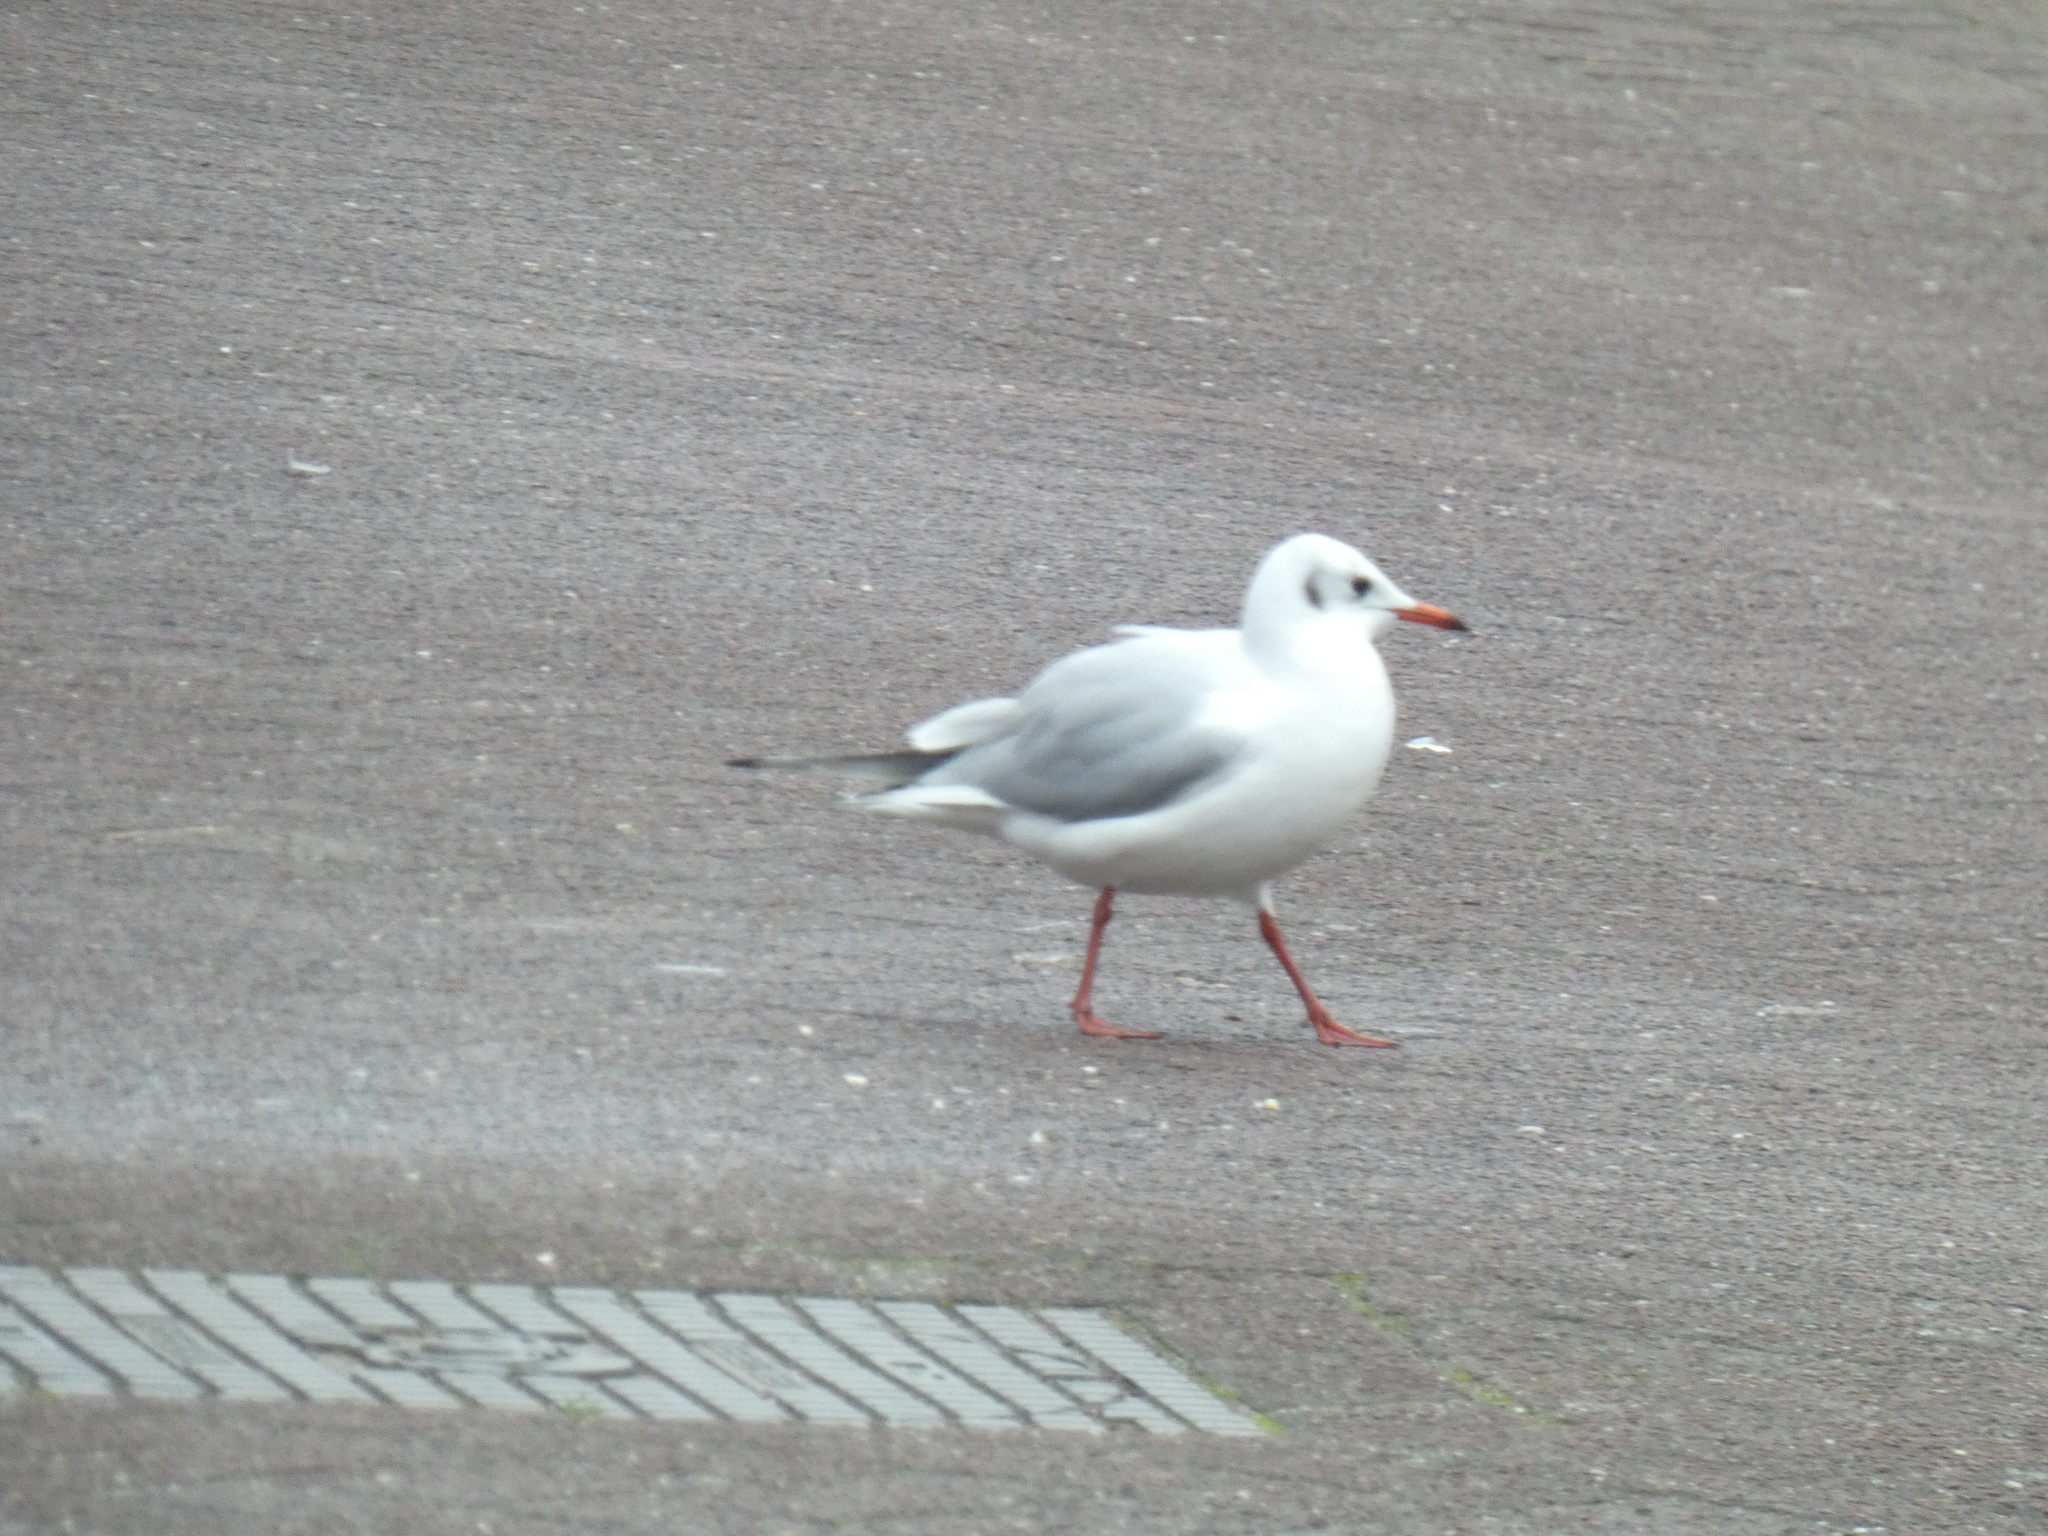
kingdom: Animalia
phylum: Chordata
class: Aves
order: Charadriiformes
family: Laridae
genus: Chroicocephalus
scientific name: Chroicocephalus ridibundus
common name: Black-headed gull
